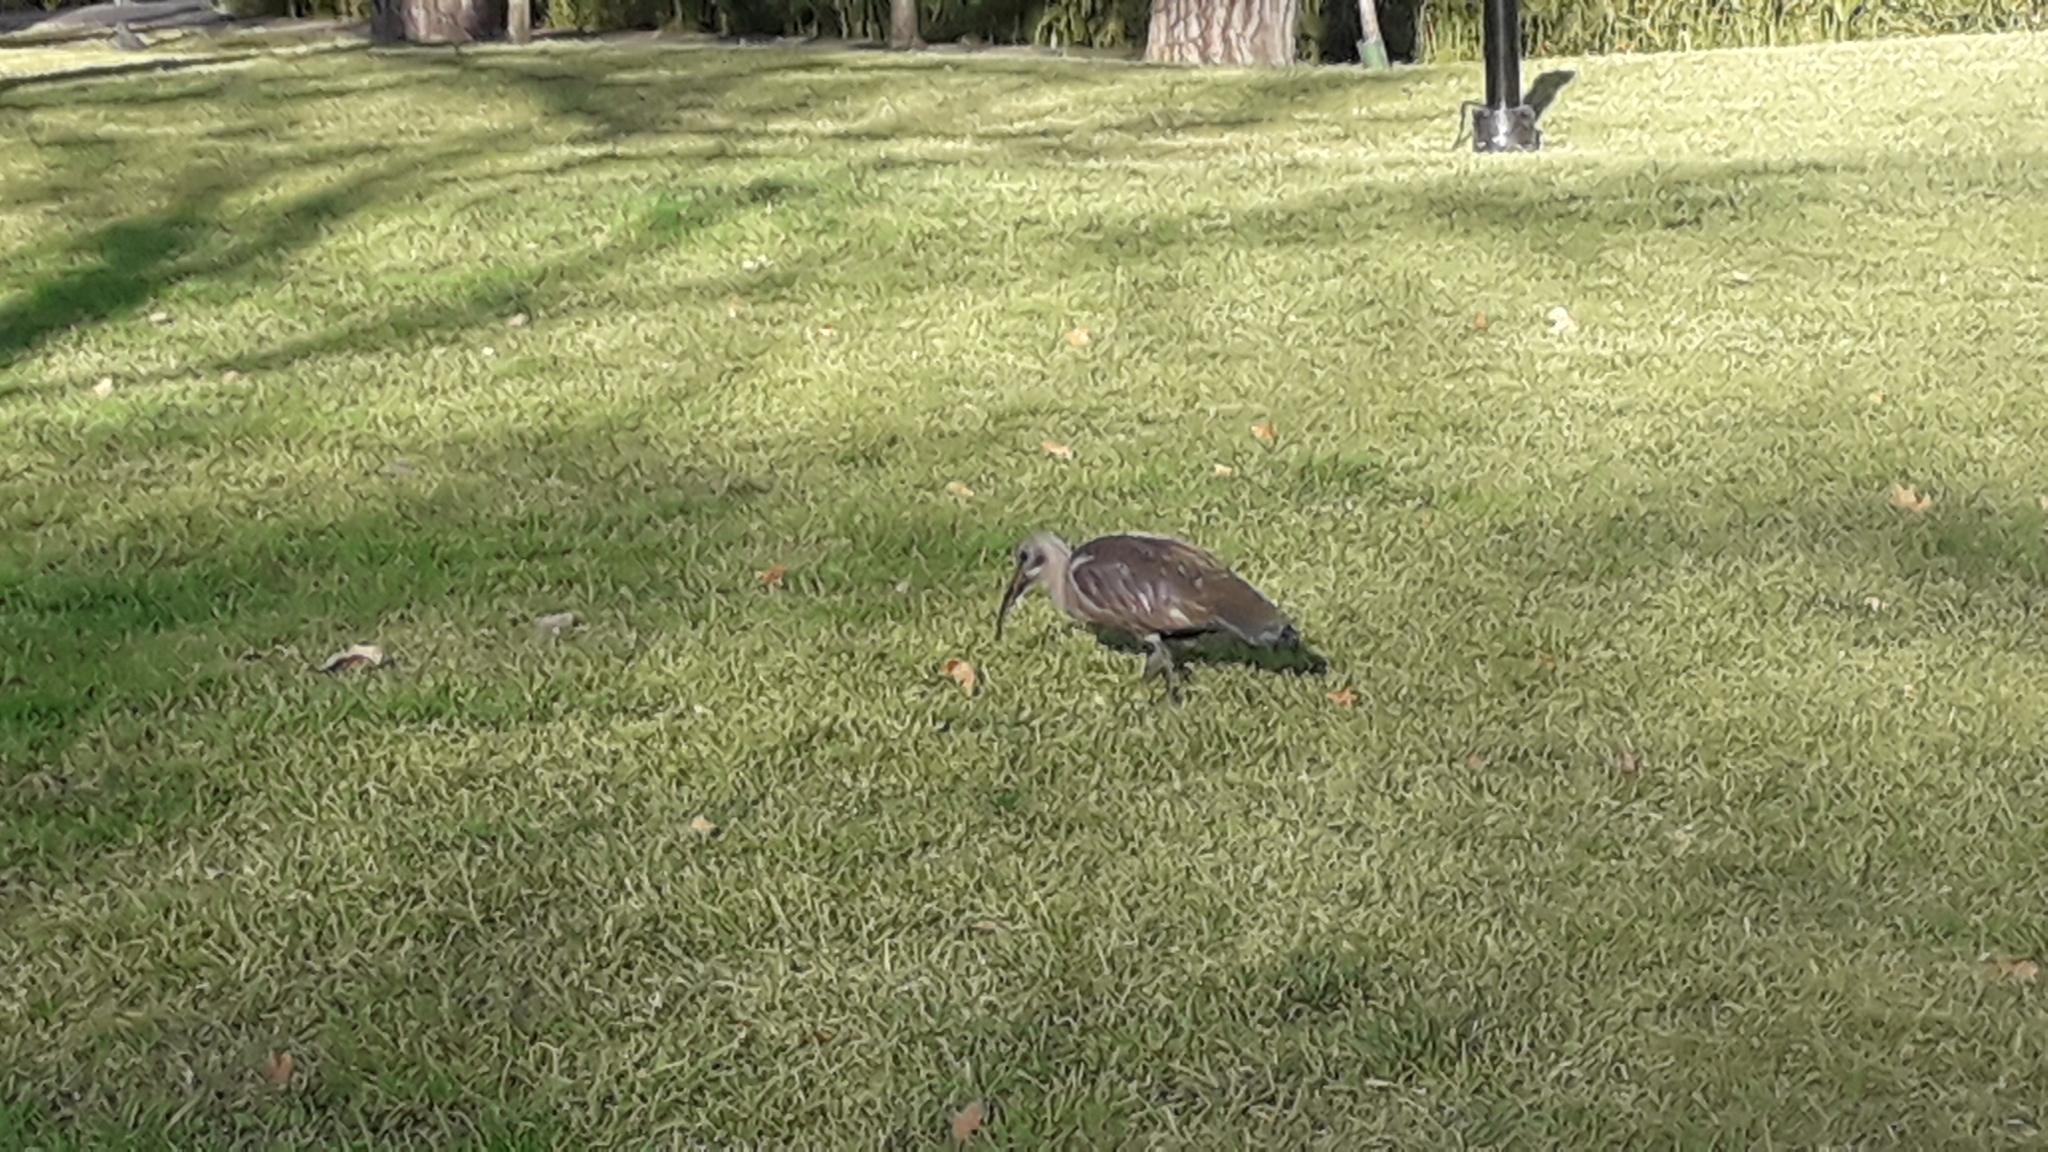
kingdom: Animalia
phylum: Chordata
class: Aves
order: Pelecaniformes
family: Threskiornithidae
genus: Bostrychia
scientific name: Bostrychia hagedash
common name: Hadada ibis
